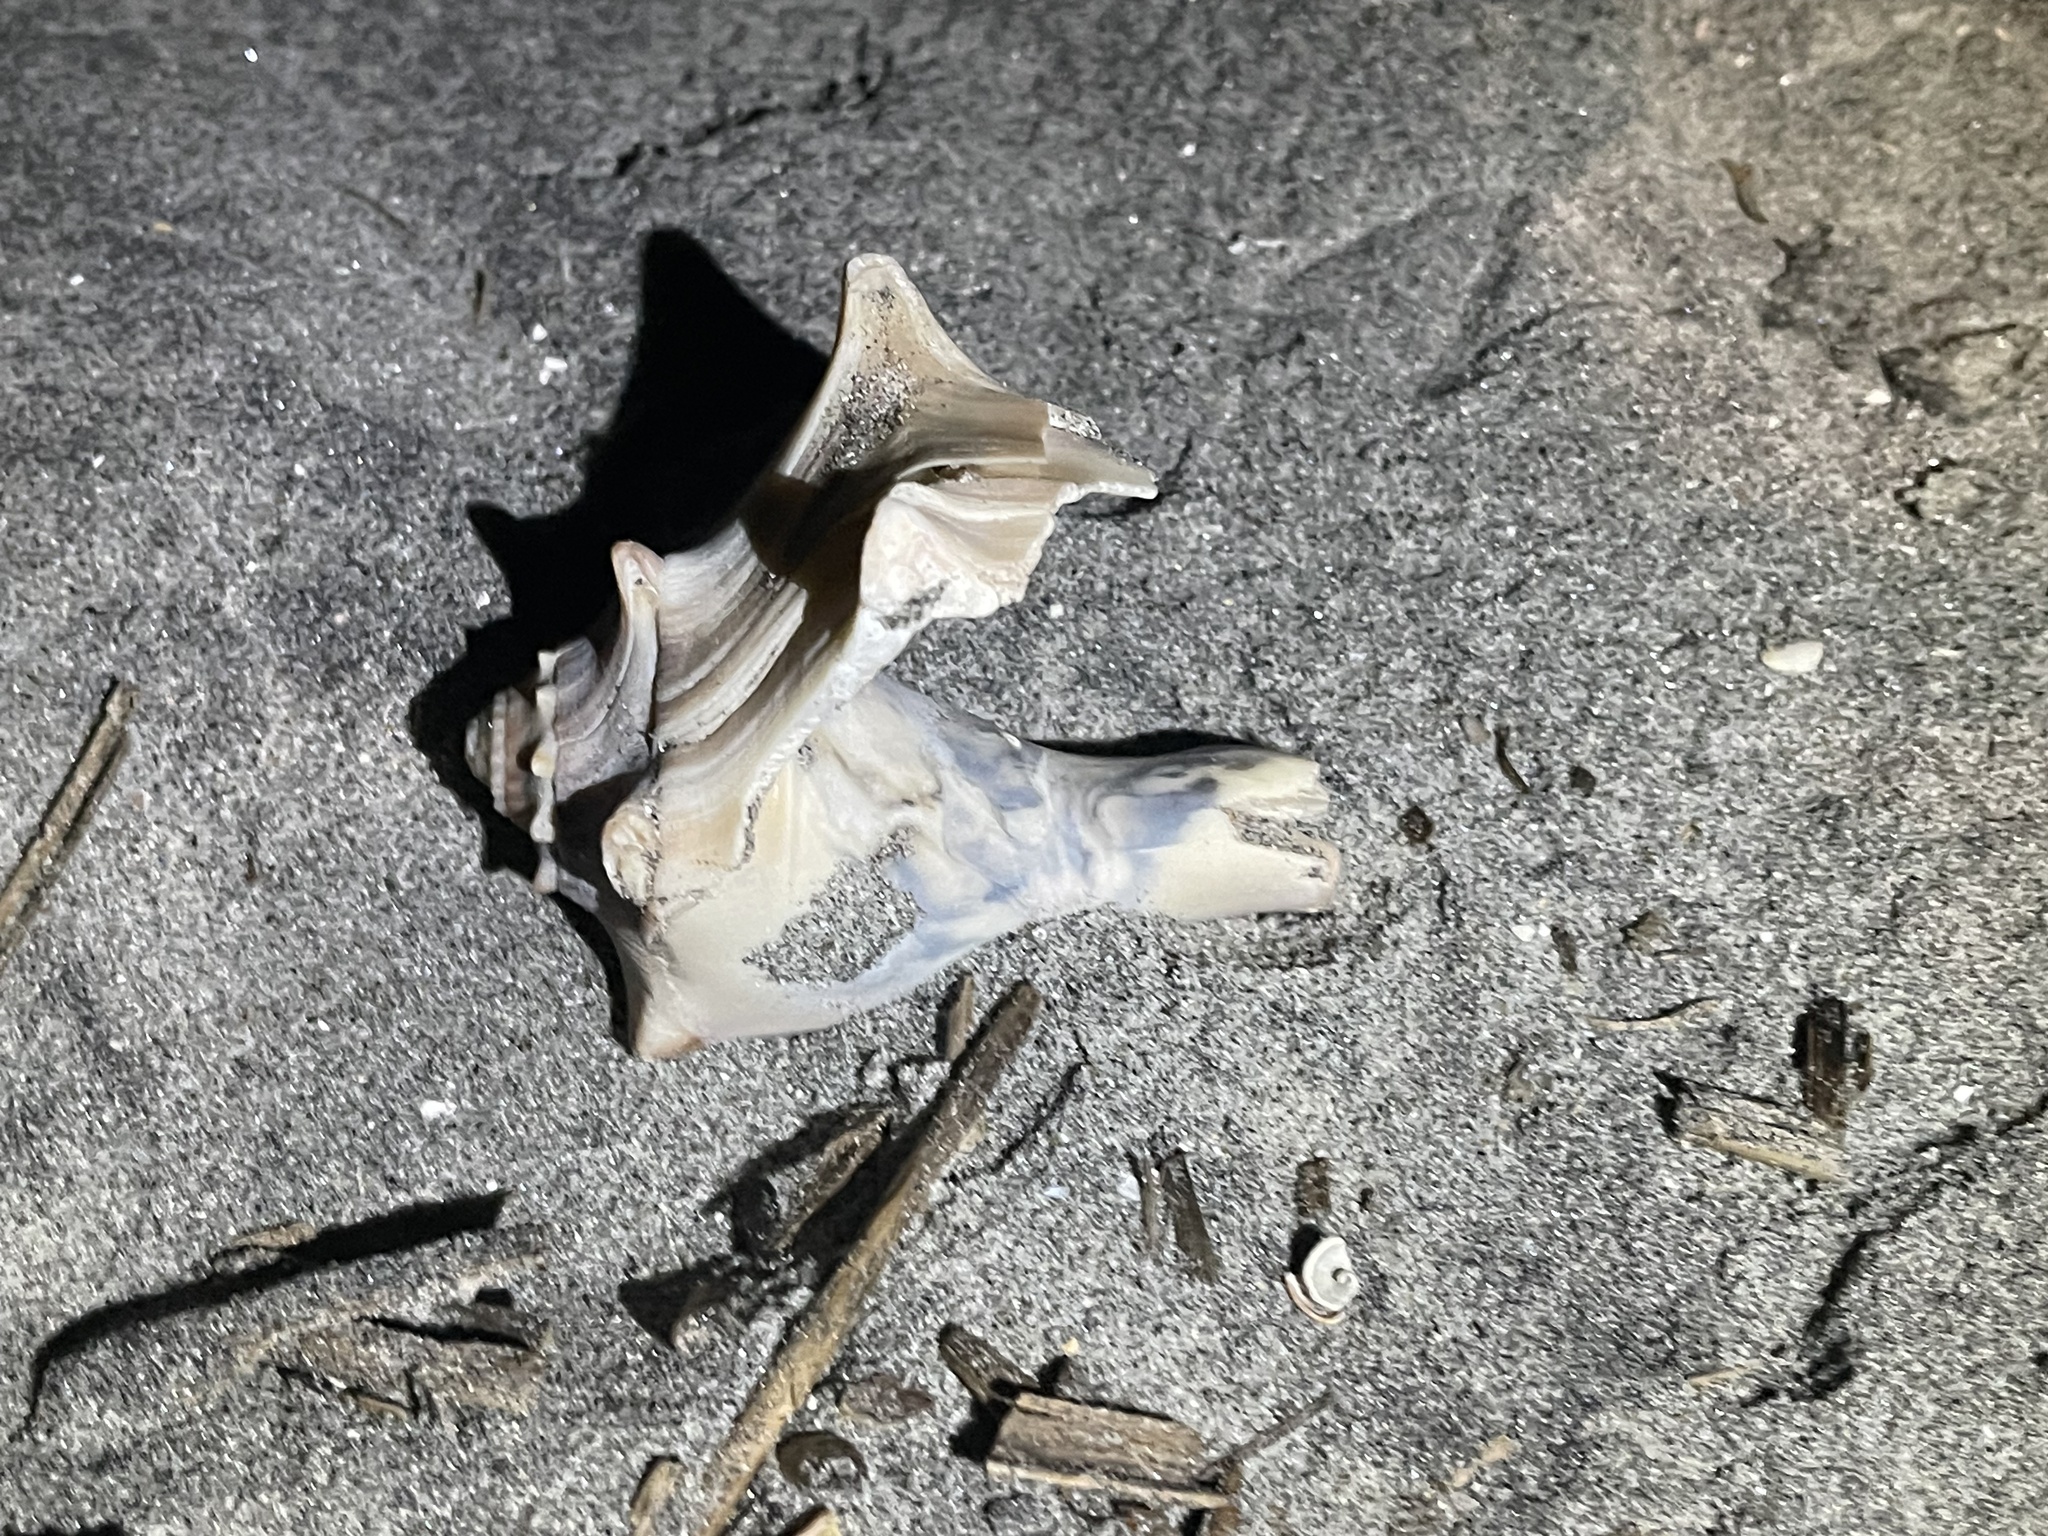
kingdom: Animalia
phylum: Mollusca
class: Gastropoda
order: Neogastropoda
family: Busyconidae
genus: Busycon
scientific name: Busycon carica
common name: Knobbed whelk
